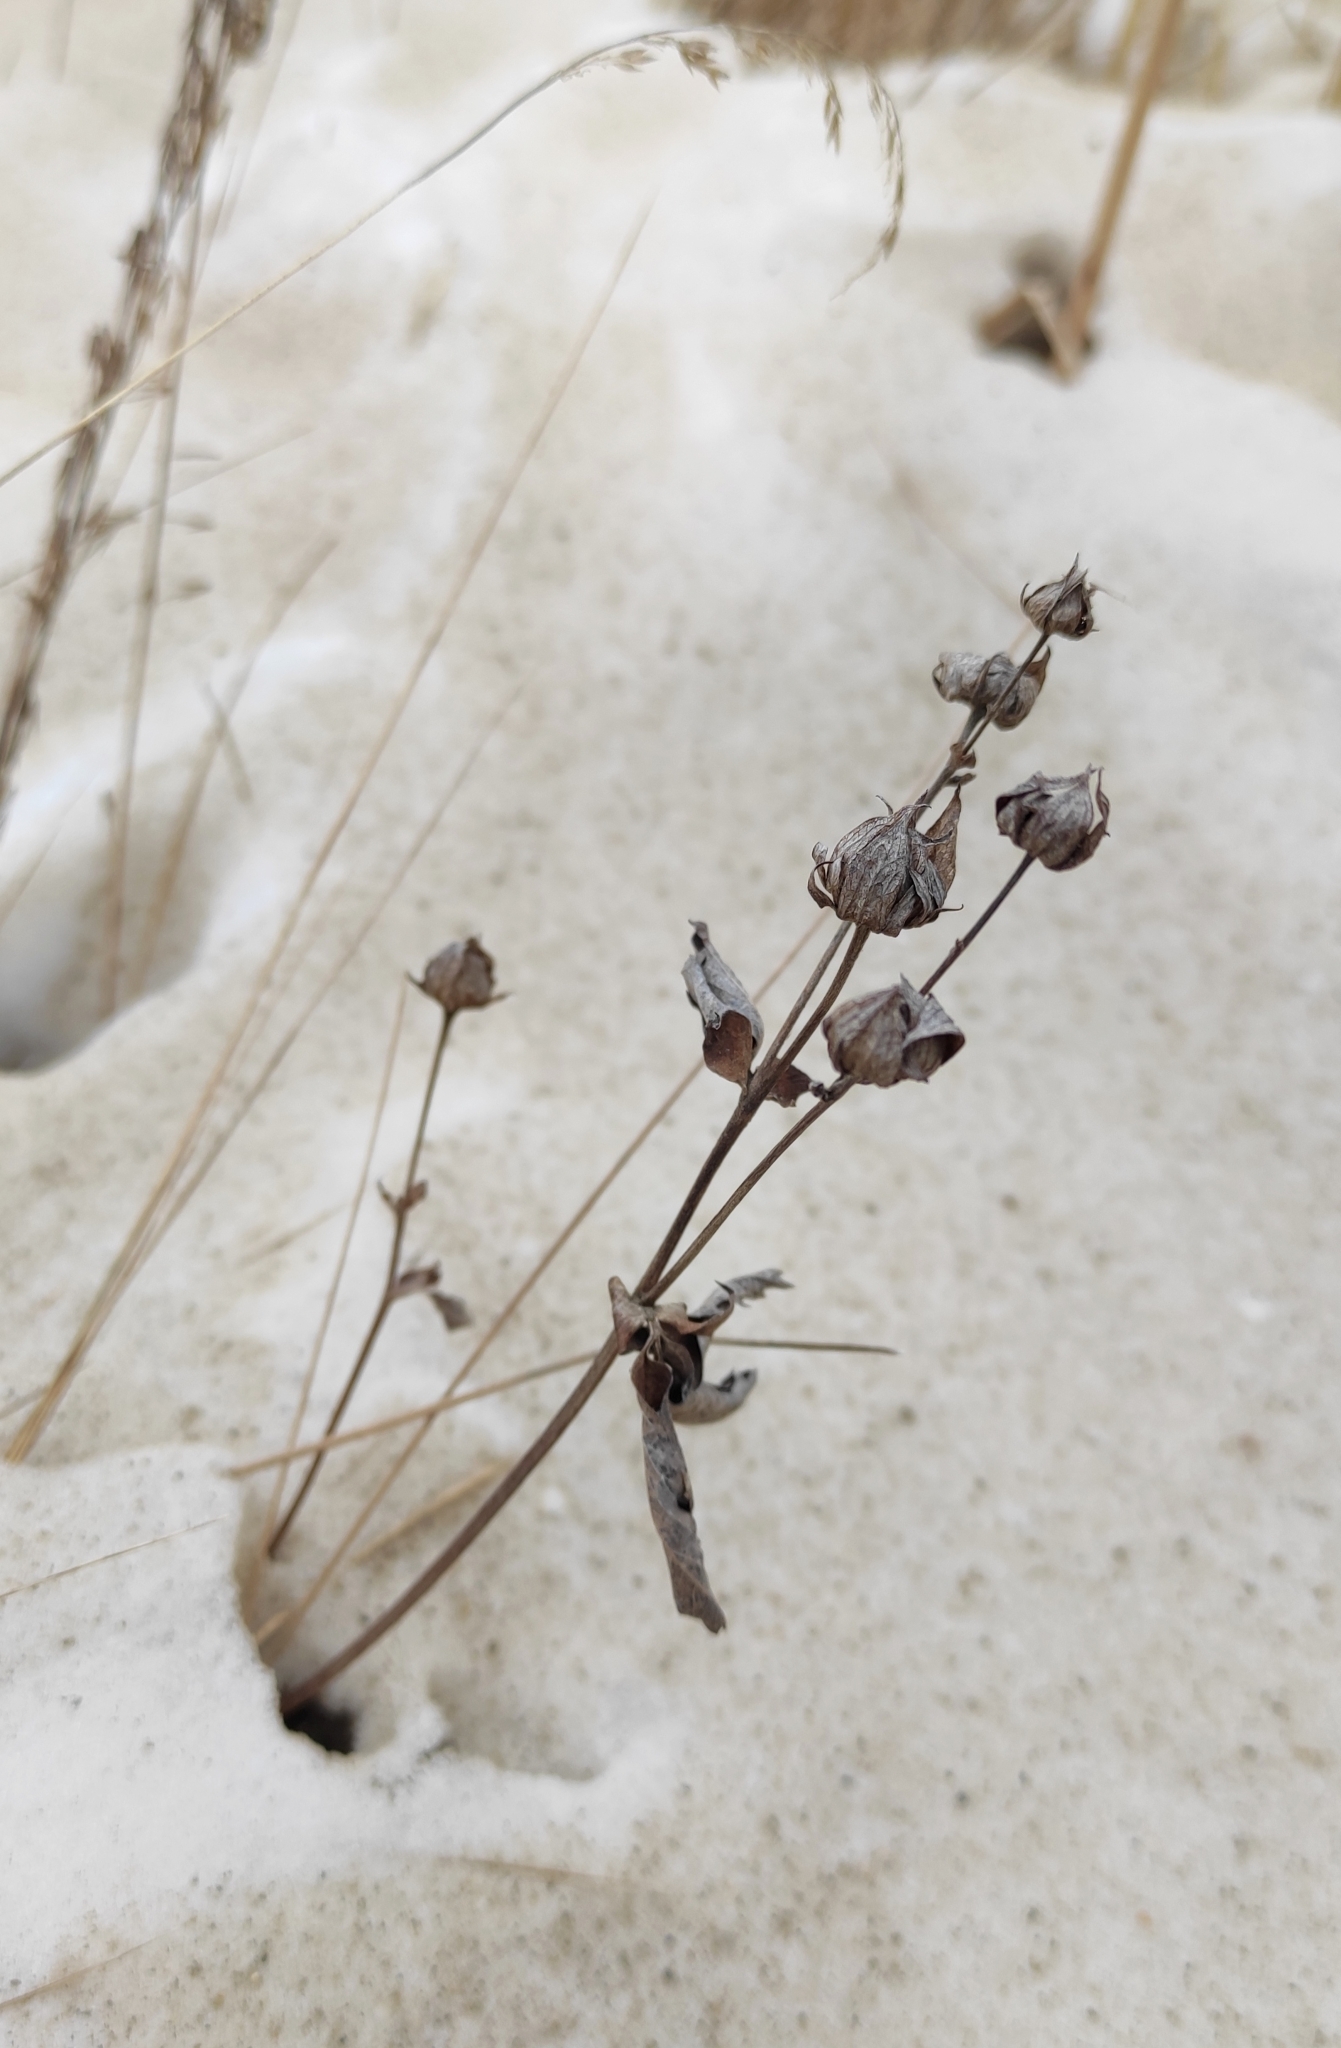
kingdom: Plantae
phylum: Tracheophyta
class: Magnoliopsida
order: Rosales
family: Rosaceae
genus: Comarum
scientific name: Comarum palustre
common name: Marsh cinquefoil
